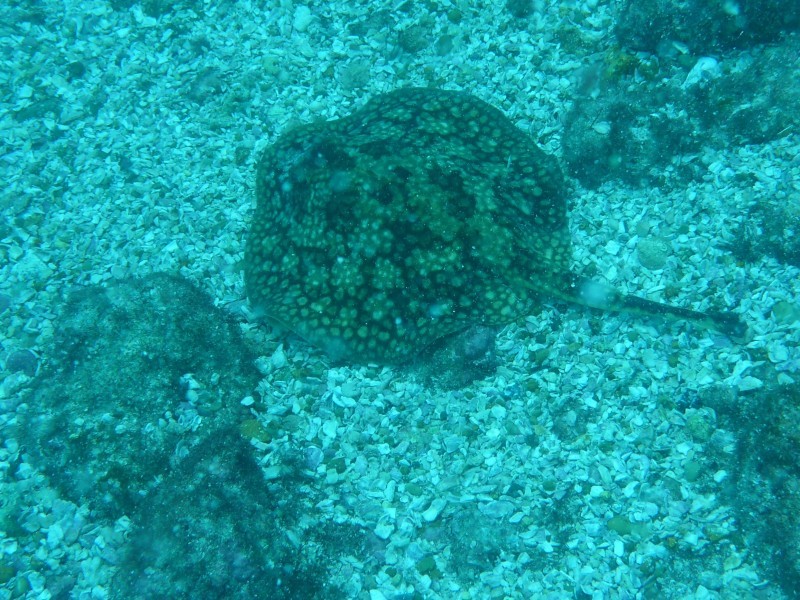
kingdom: Animalia
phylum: Chordata
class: Elasmobranchii
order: Myliobatiformes
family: Urotrygonidae
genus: Urobatis
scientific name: Urobatis tumbesensis
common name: Tumbes round stingray
